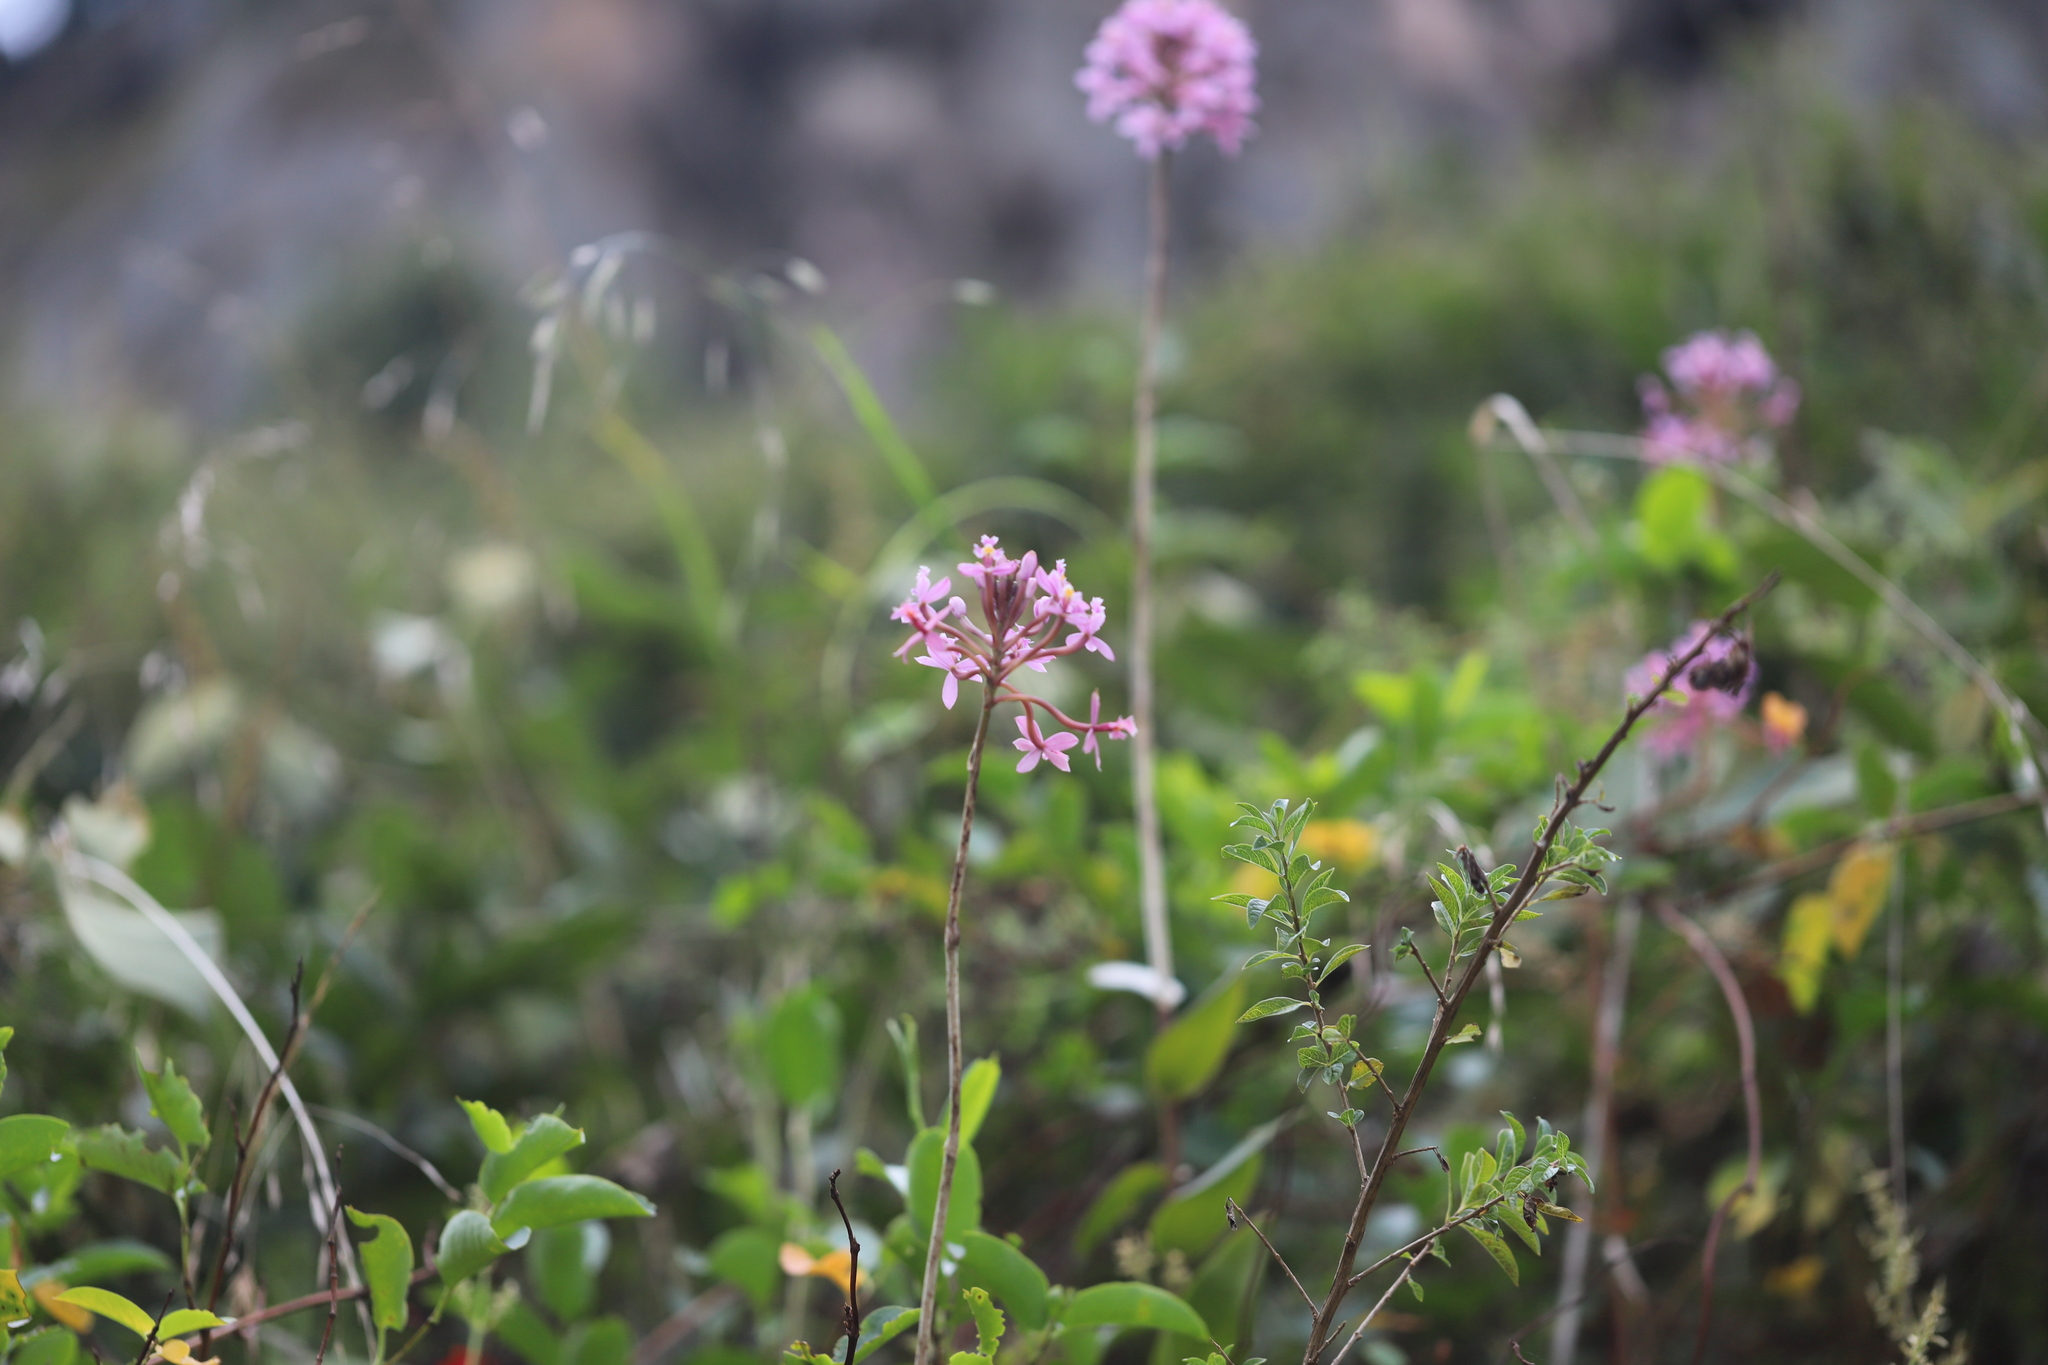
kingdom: Plantae
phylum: Tracheophyta
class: Liliopsida
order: Asparagales
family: Orchidaceae
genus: Epidendrum
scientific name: Epidendrum arachnoglossum
